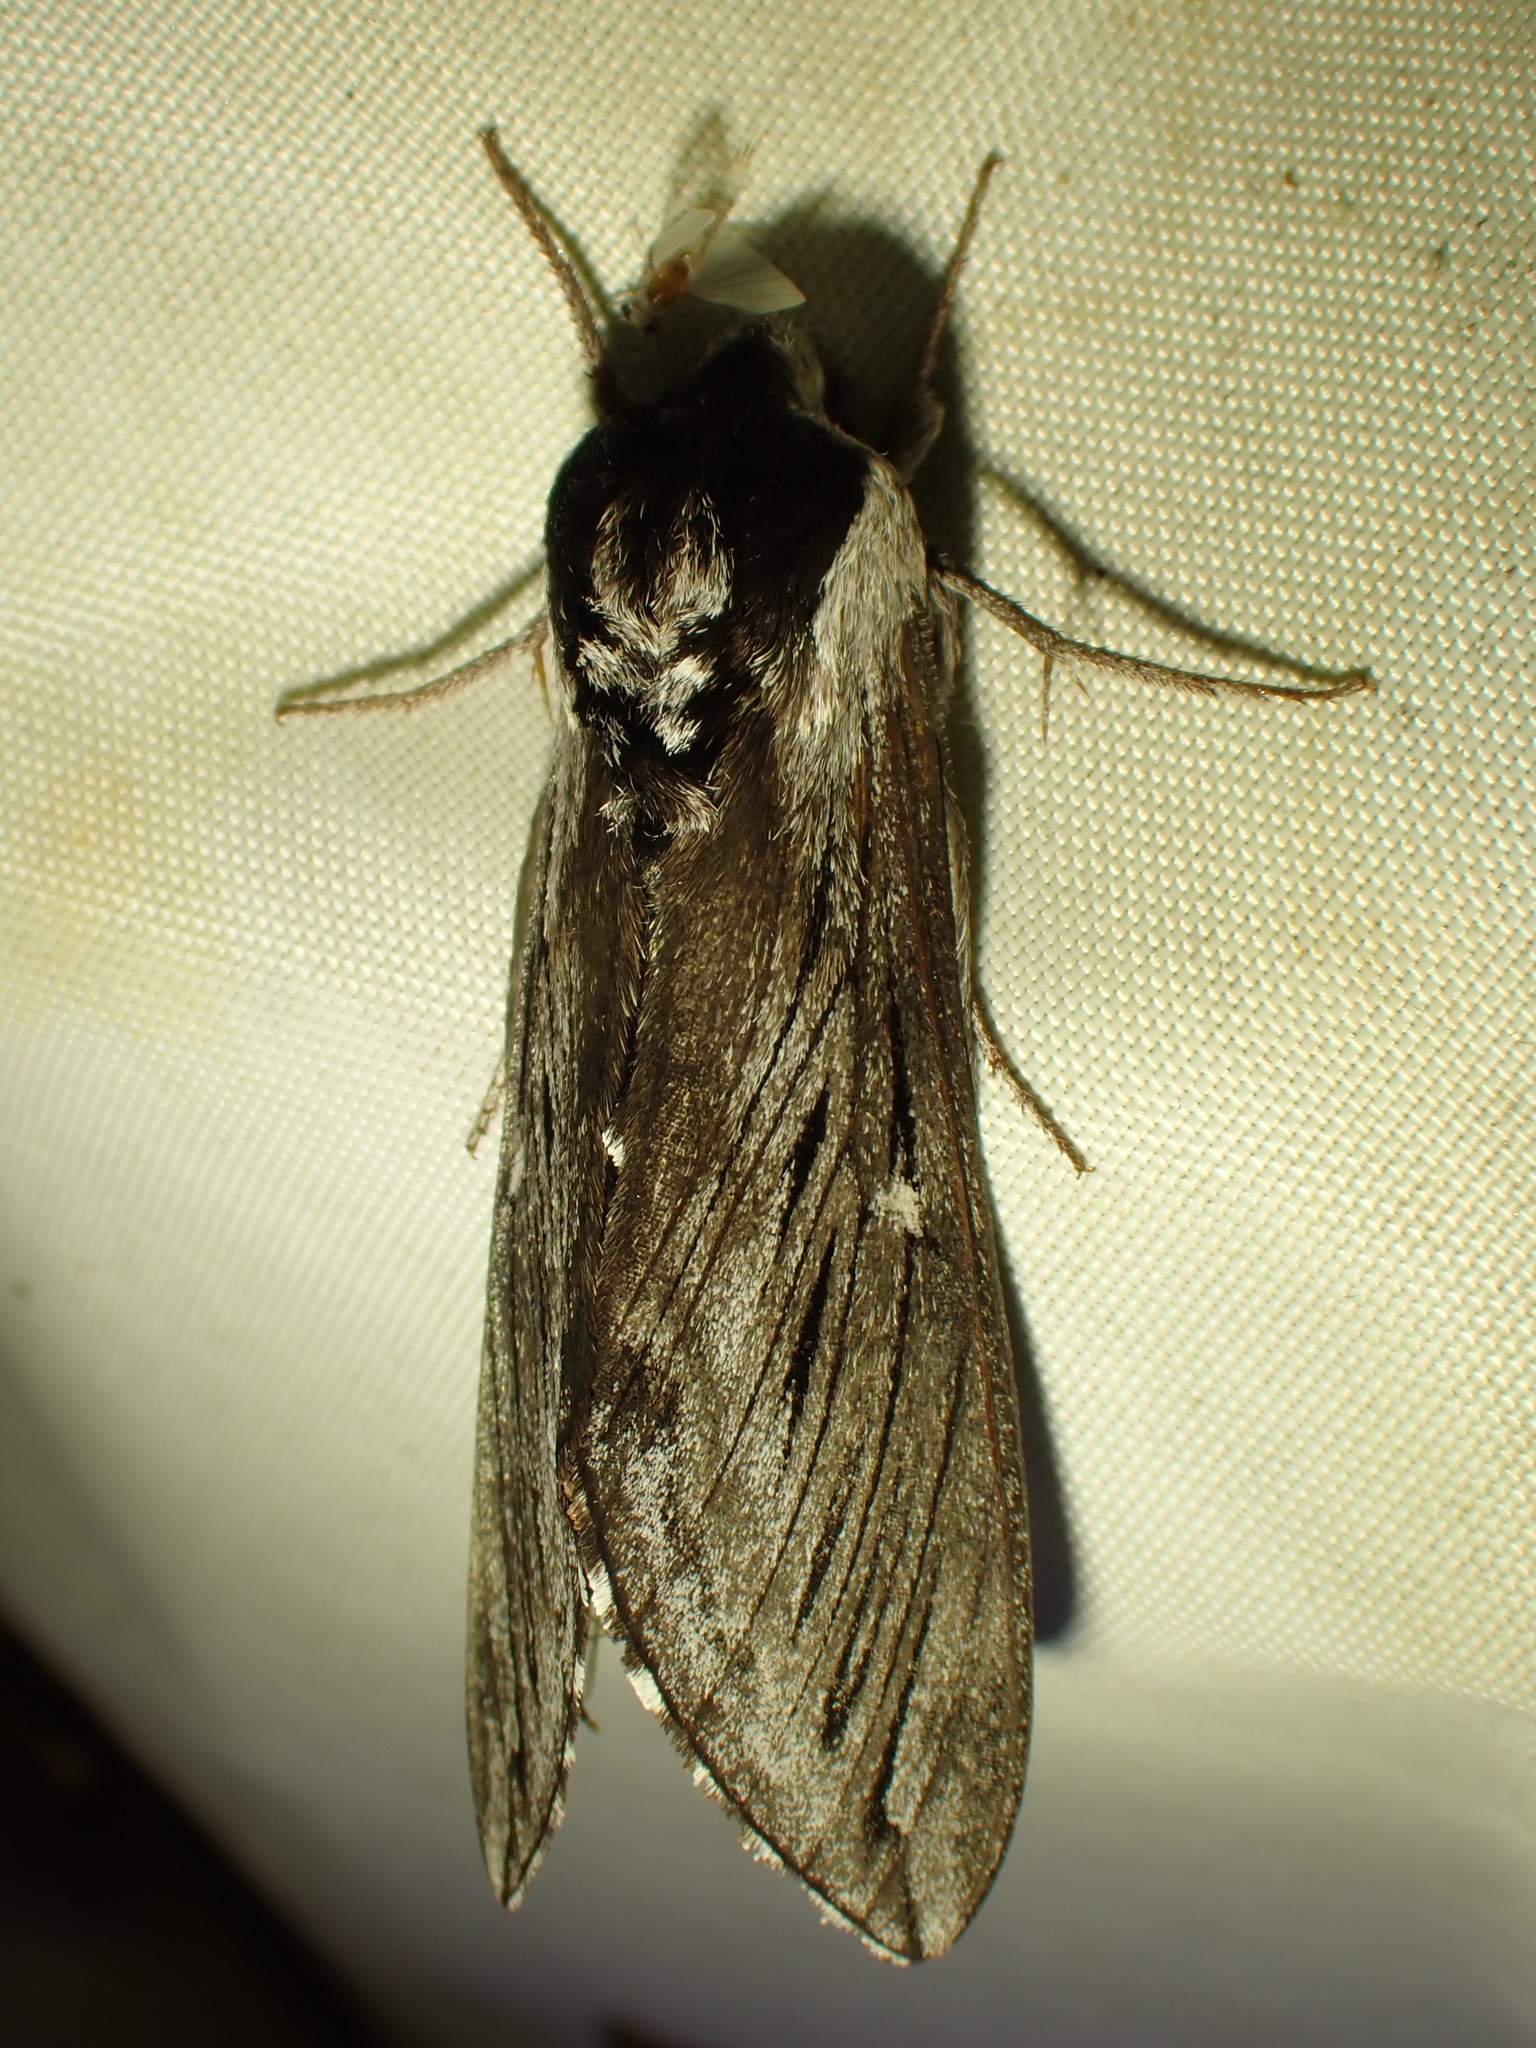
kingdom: Animalia
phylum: Arthropoda
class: Insecta
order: Lepidoptera
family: Sphingidae
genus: Sphinx
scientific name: Sphinx poecila
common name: Northern apple sphinx
